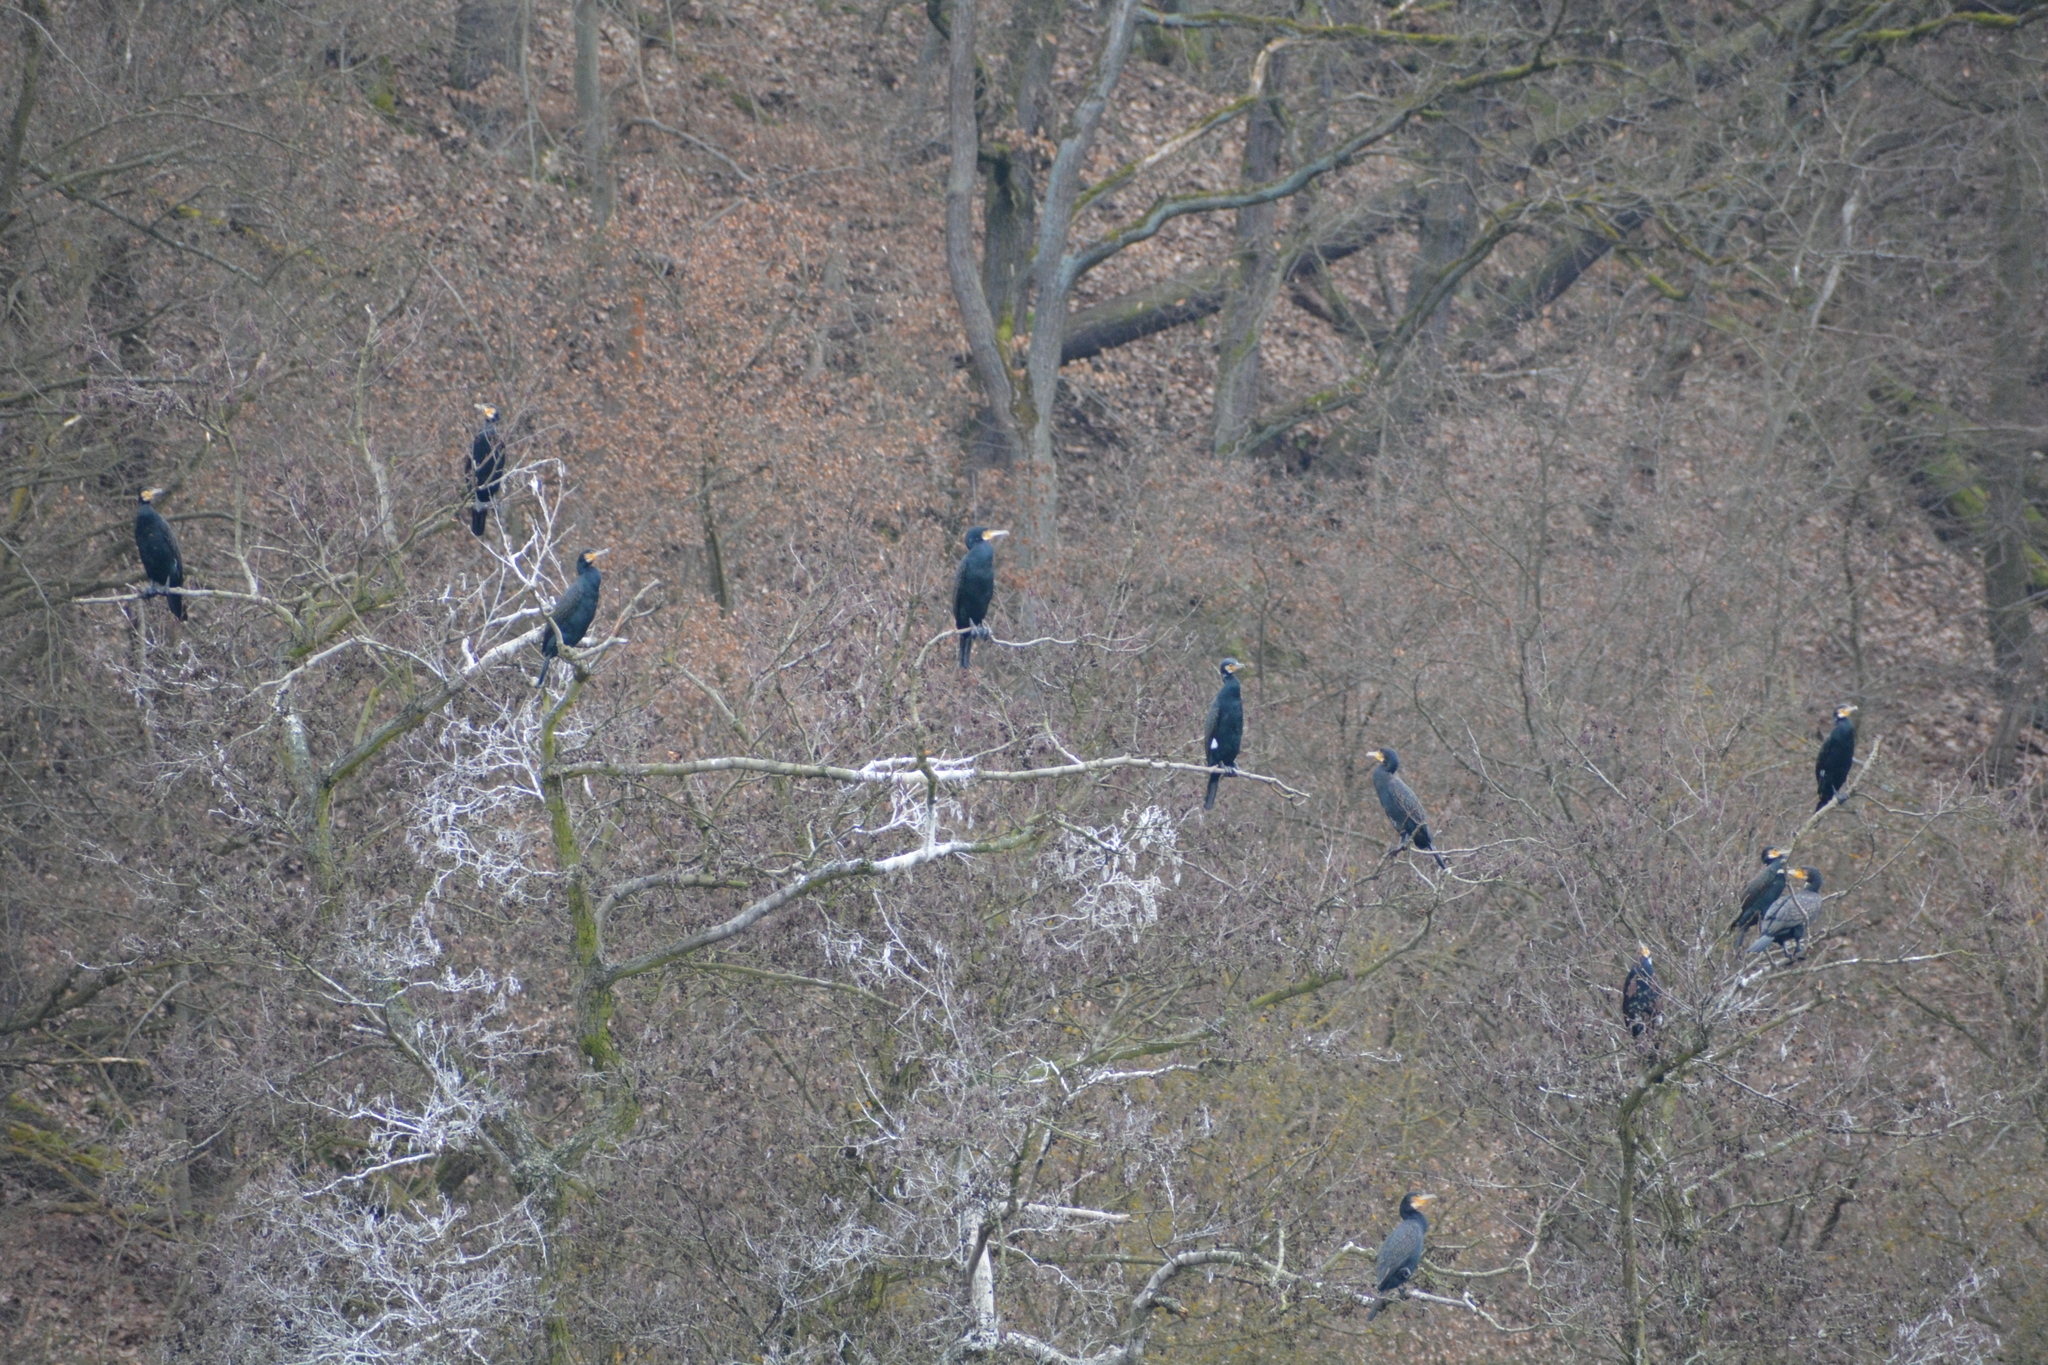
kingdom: Animalia
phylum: Chordata
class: Aves
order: Suliformes
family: Phalacrocoracidae
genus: Phalacrocorax
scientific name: Phalacrocorax carbo
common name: Great cormorant
